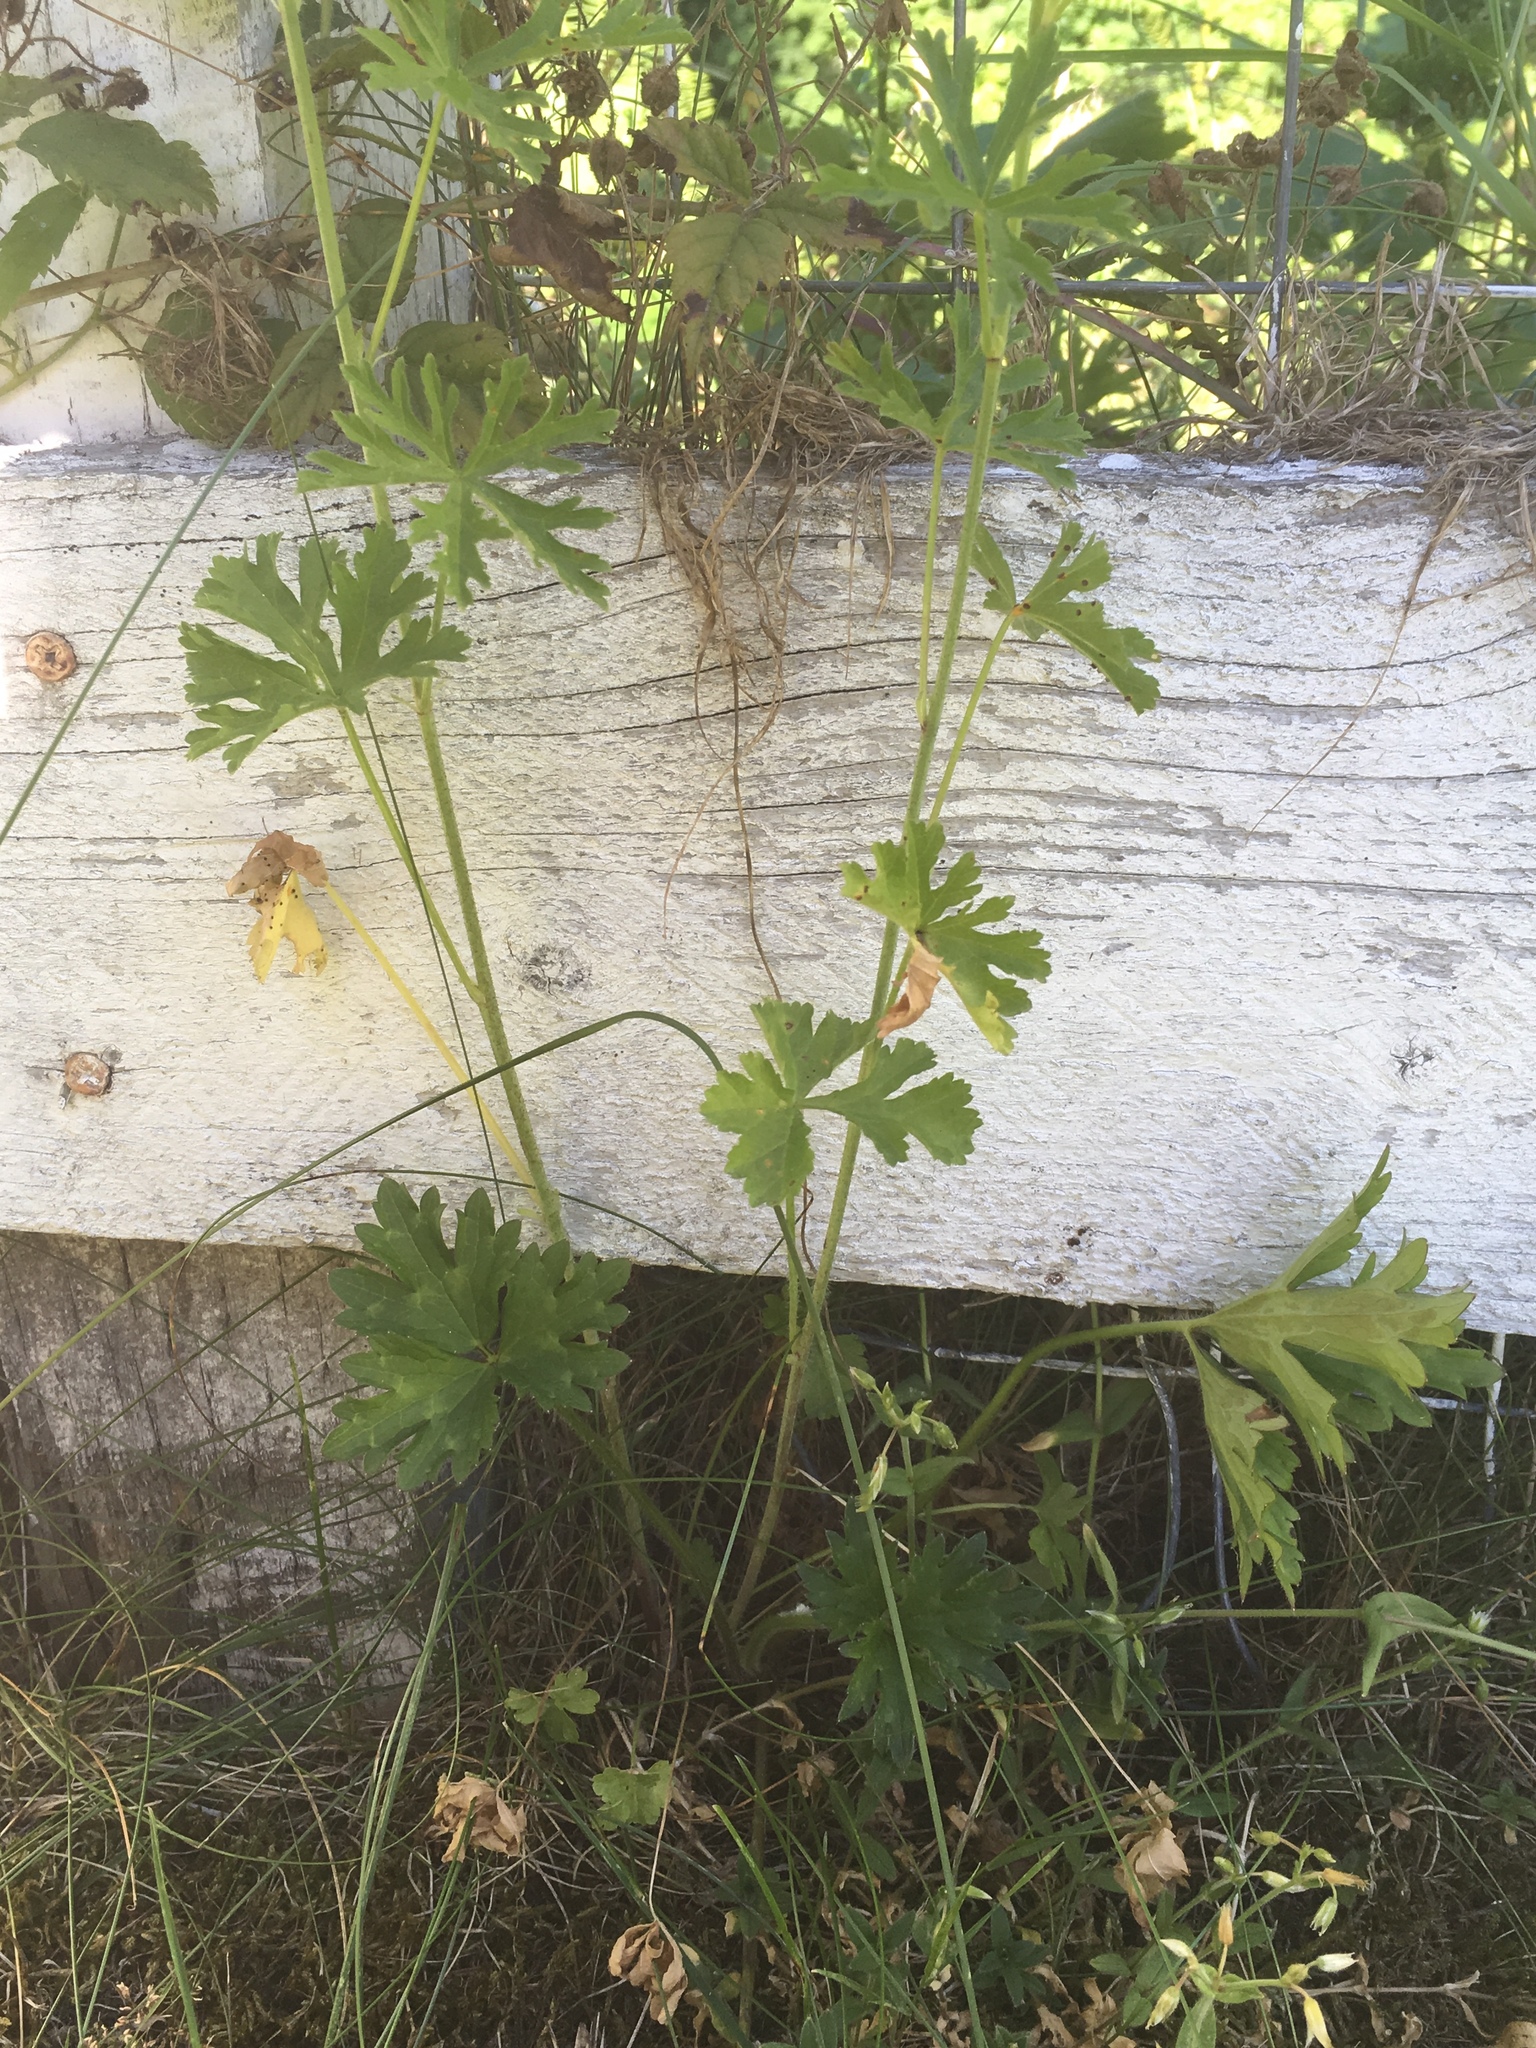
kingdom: Plantae
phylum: Tracheophyta
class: Magnoliopsida
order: Malvales
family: Malvaceae
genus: Malva
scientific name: Malva moschata
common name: Musk mallow
